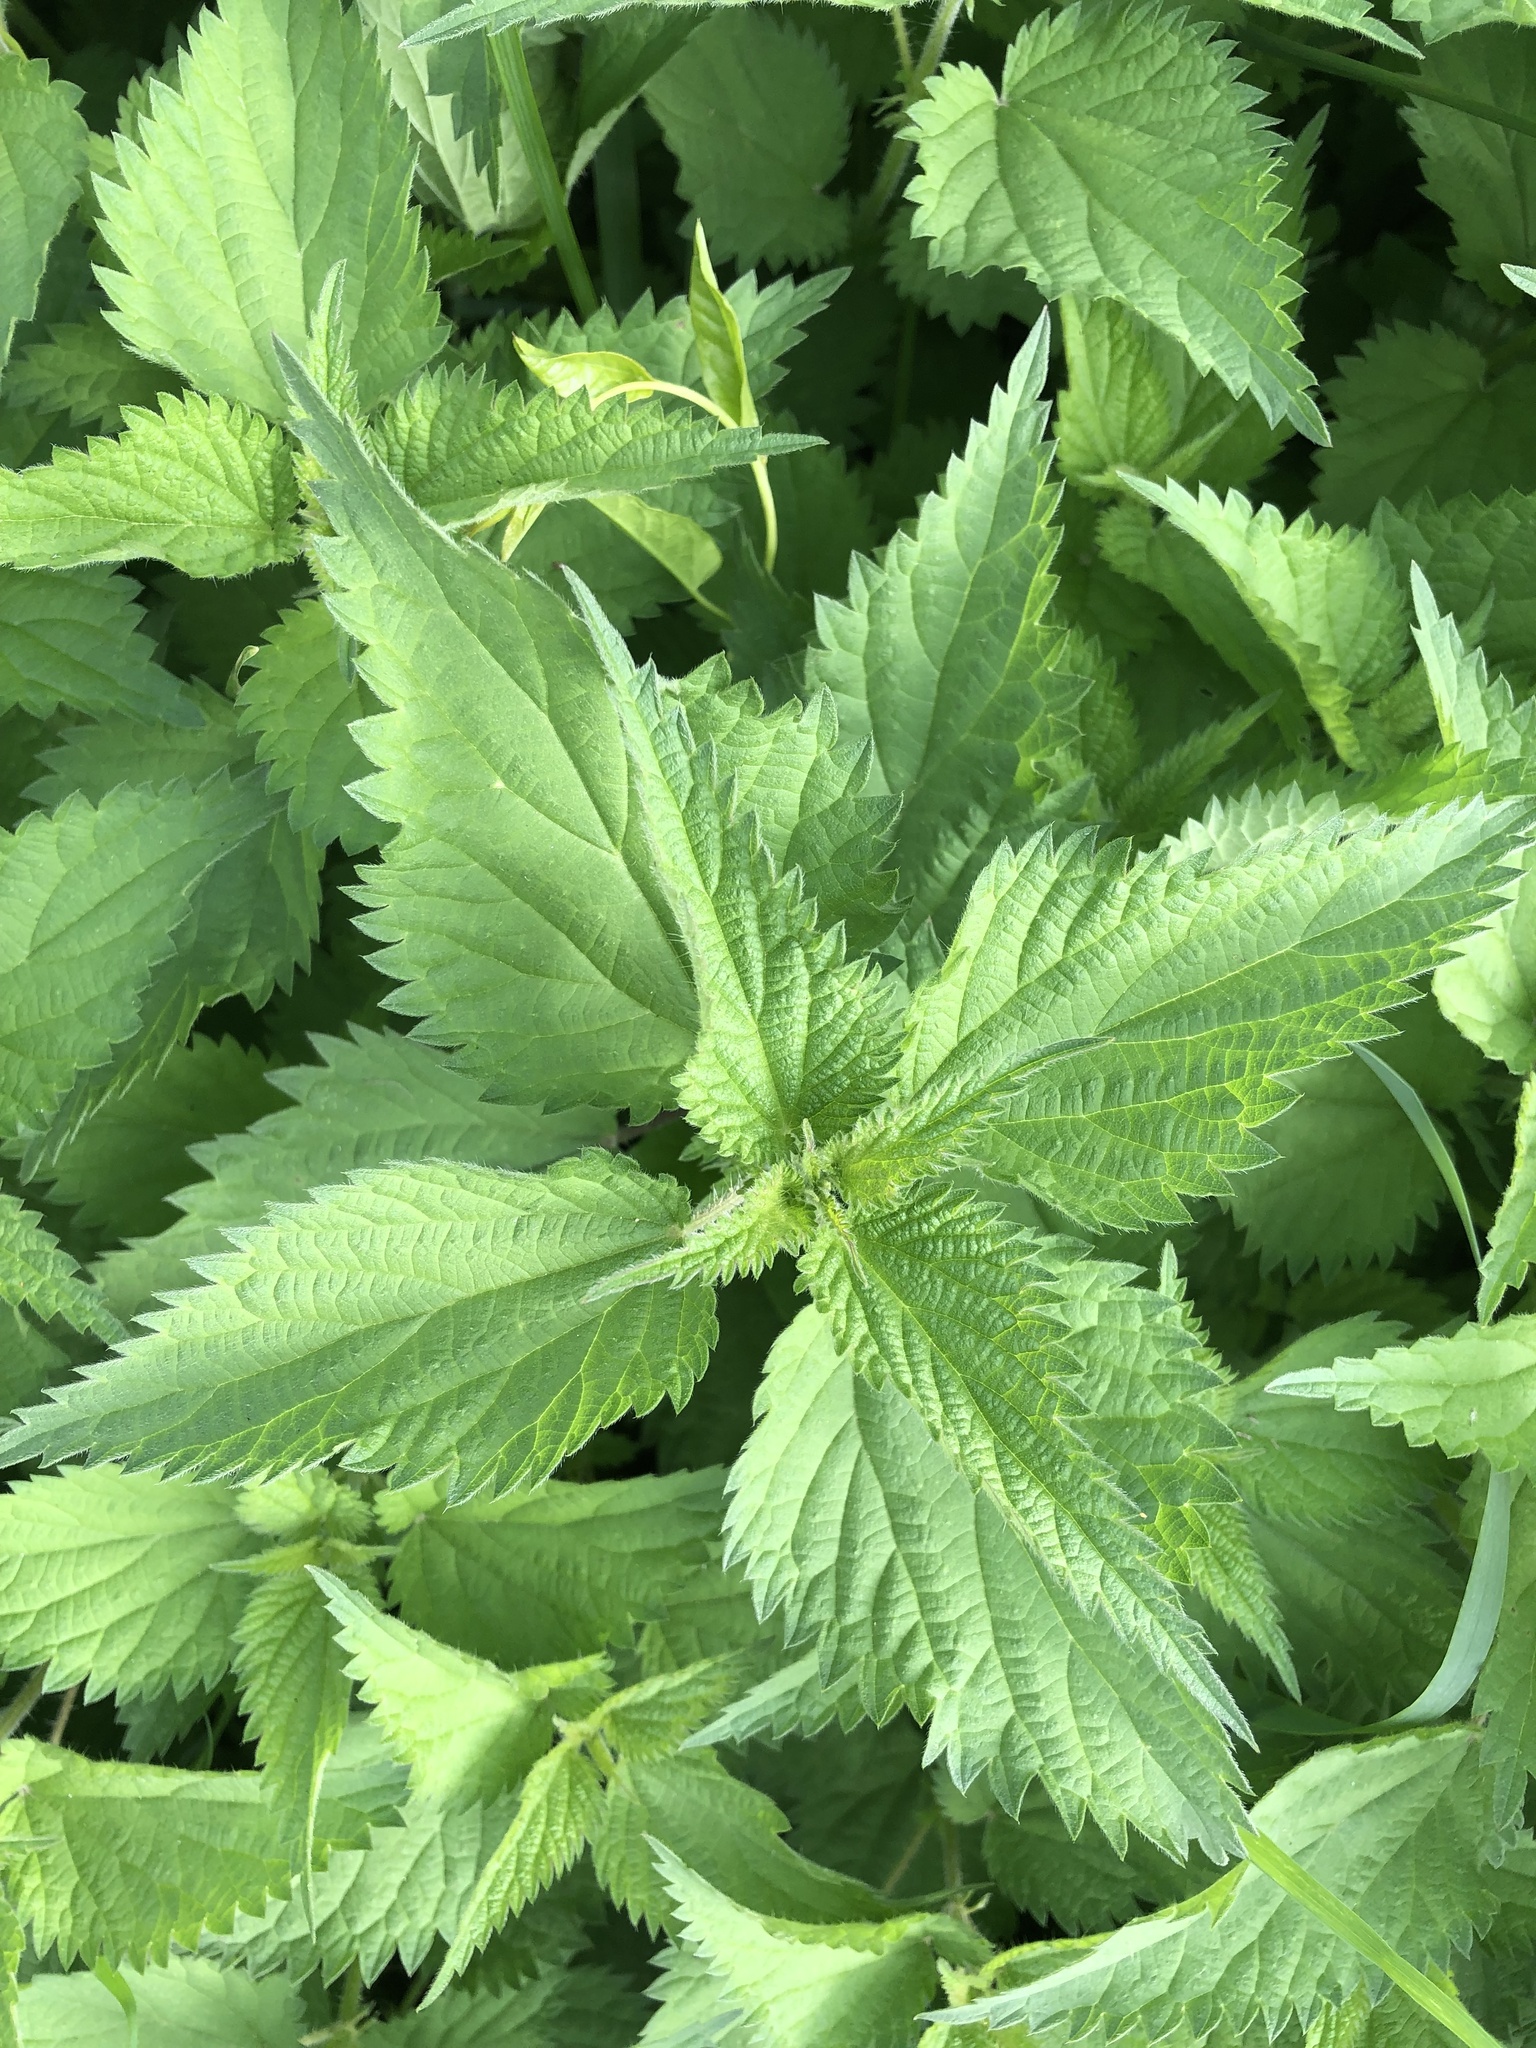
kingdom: Plantae
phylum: Tracheophyta
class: Magnoliopsida
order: Rosales
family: Urticaceae
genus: Urtica
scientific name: Urtica dioica
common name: Common nettle
